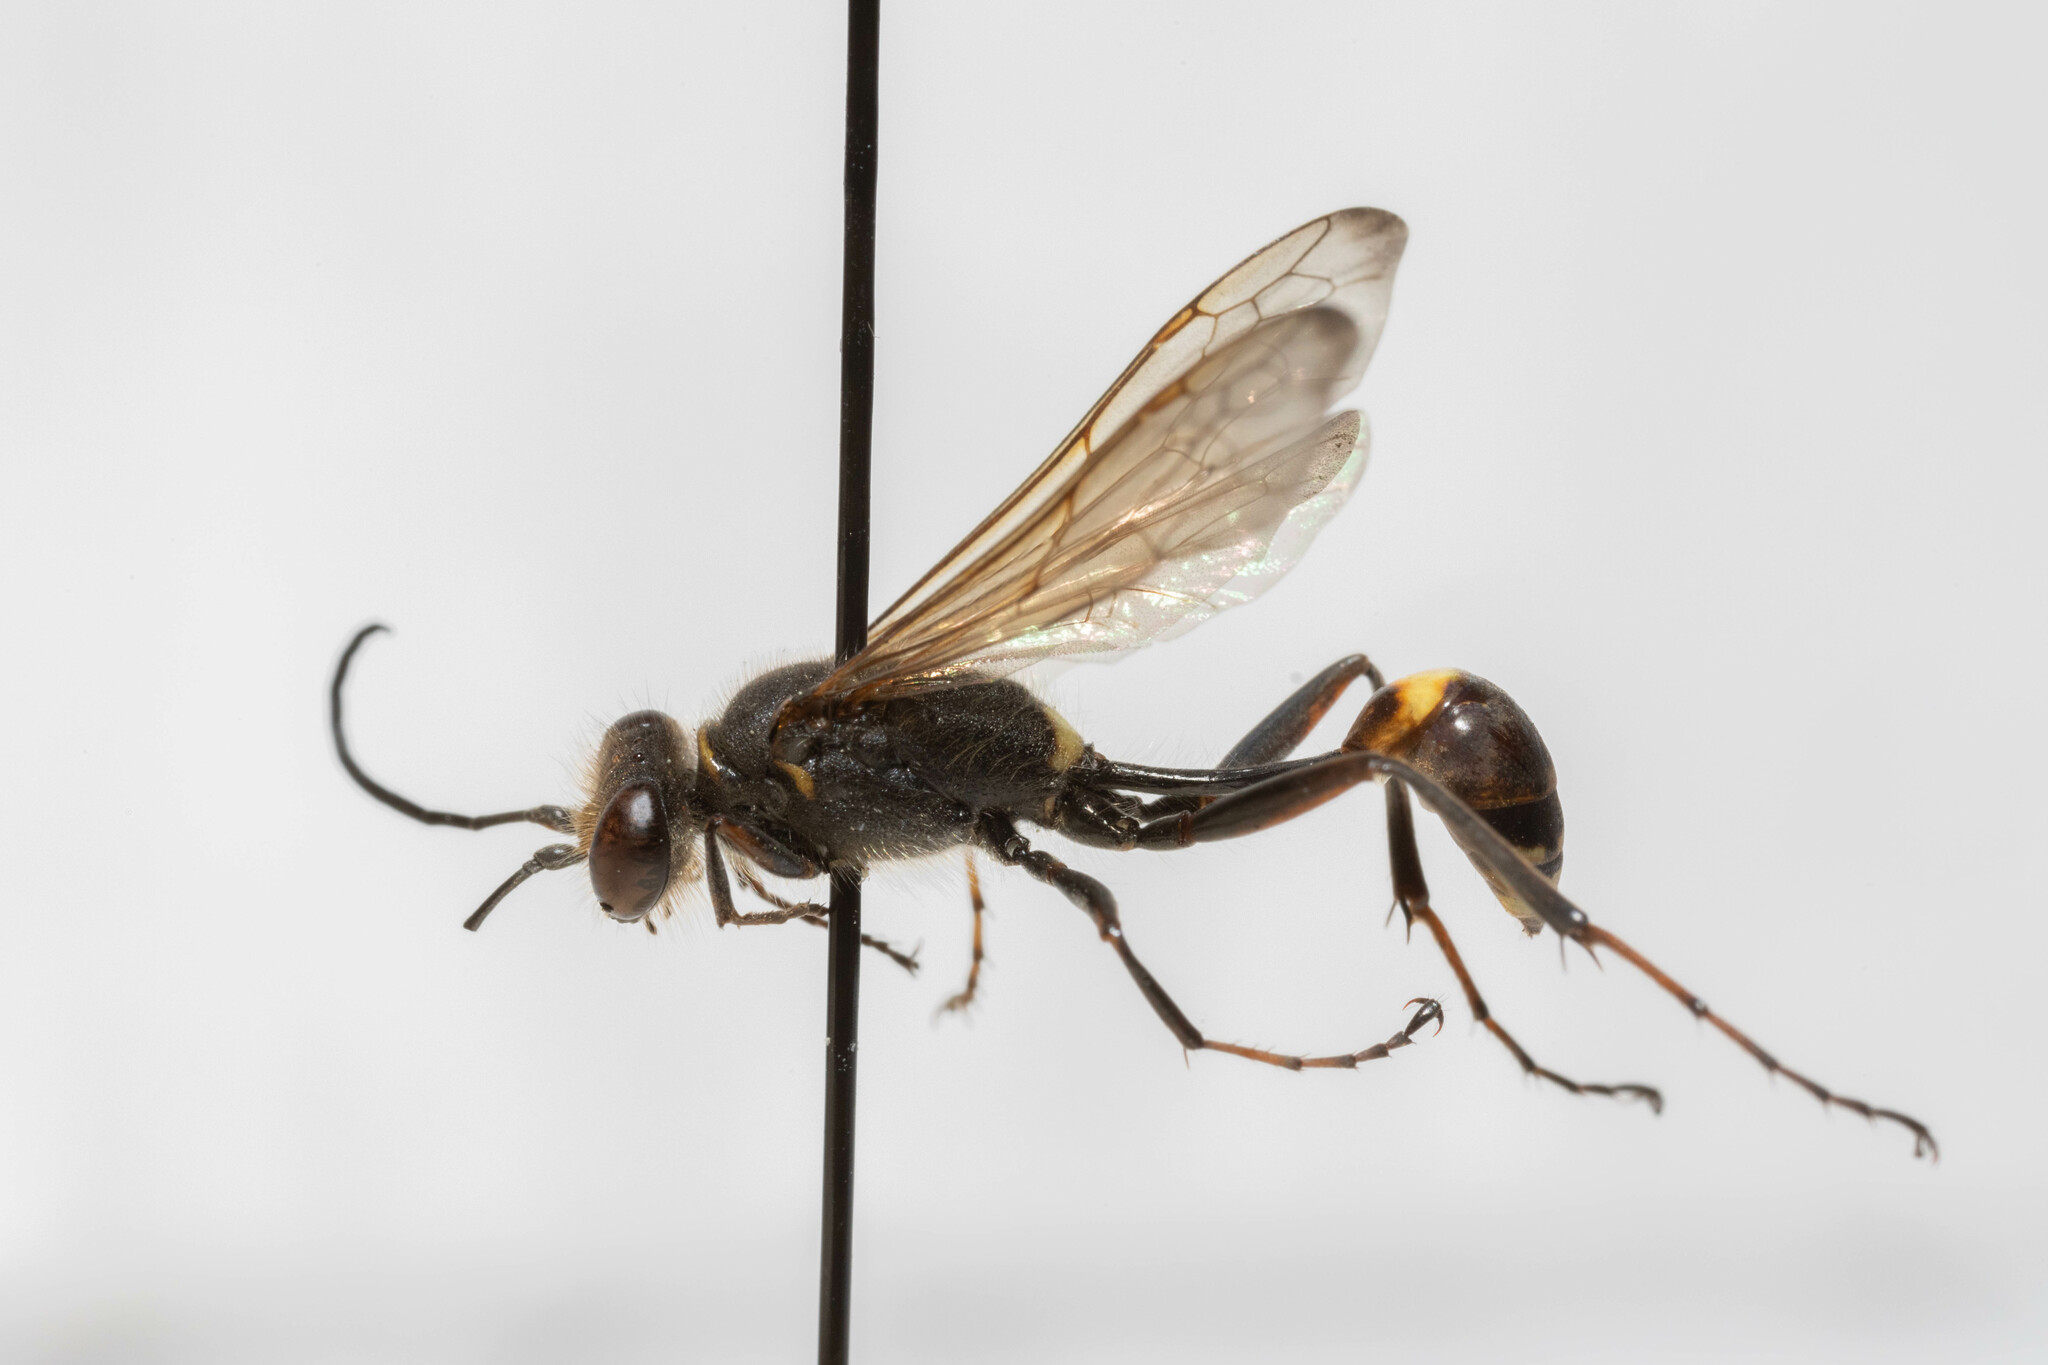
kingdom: Animalia
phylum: Arthropoda
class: Insecta
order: Hymenoptera
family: Sphecidae
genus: Sceliphron
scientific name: Sceliphron curvatum
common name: Pèlopèe
